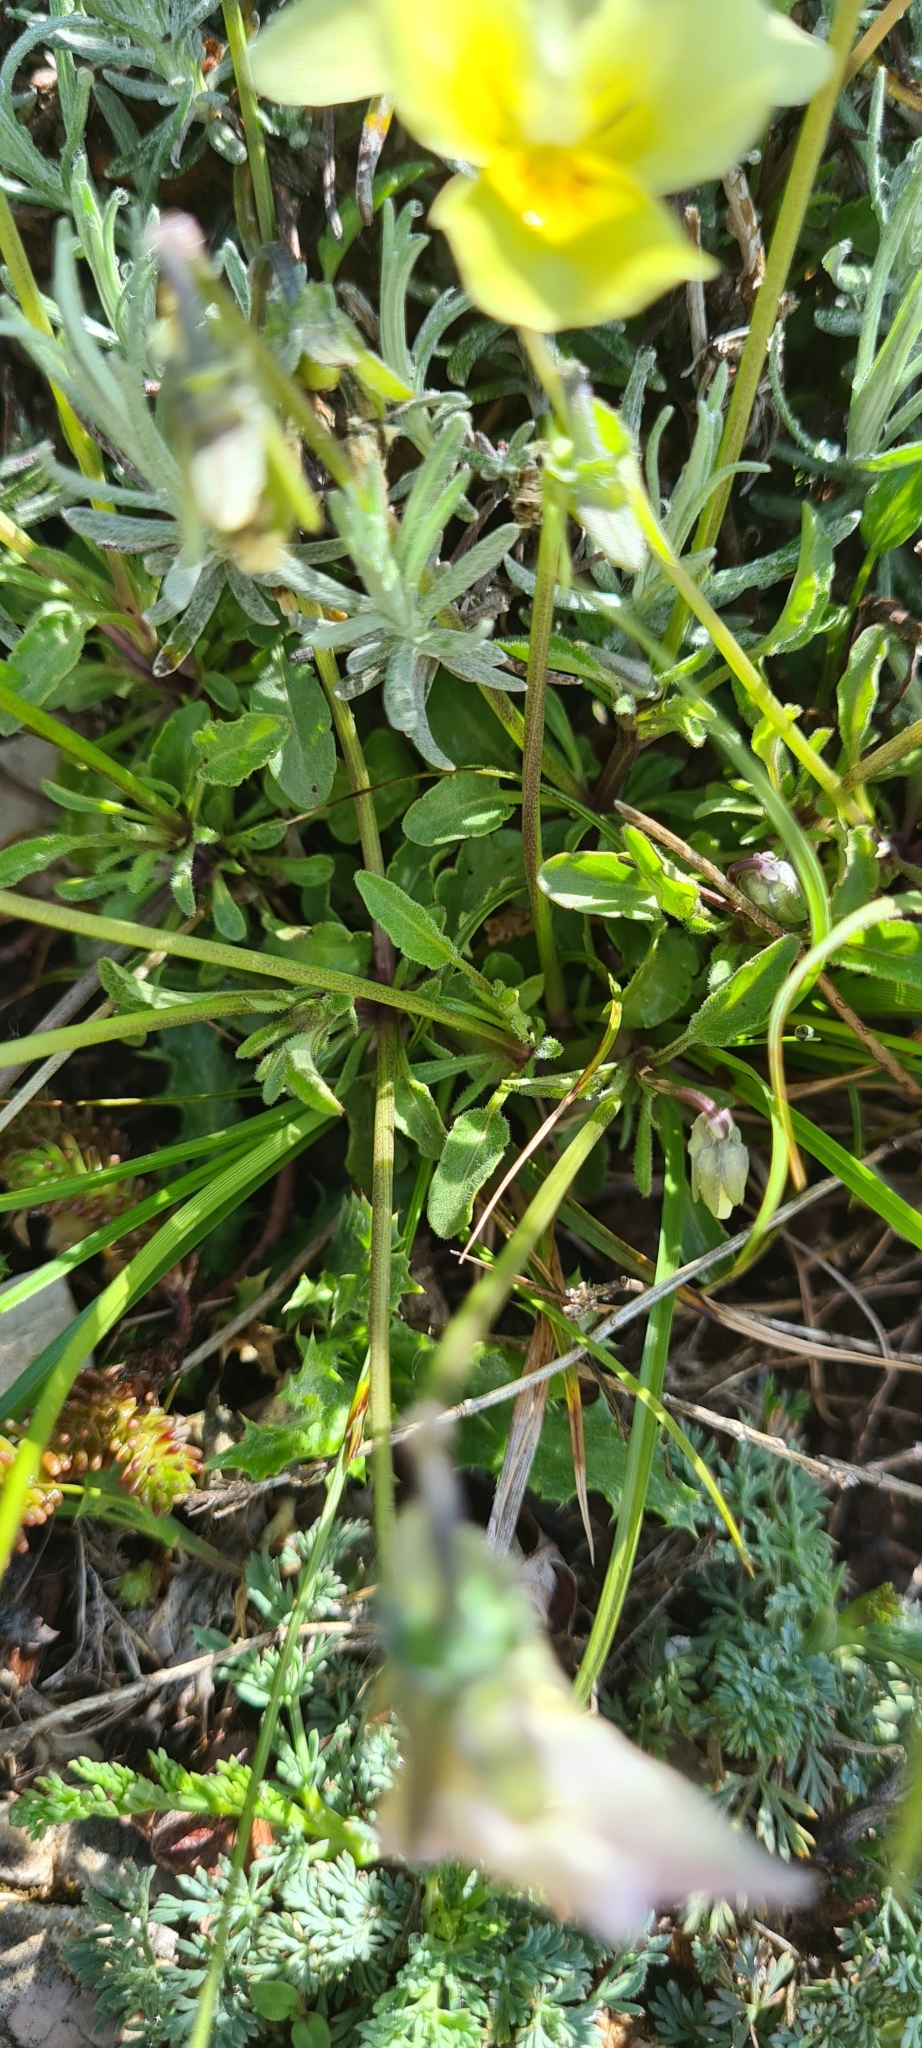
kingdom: Plantae
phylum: Tracheophyta
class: Magnoliopsida
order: Malpighiales
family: Violaceae
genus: Viola
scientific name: Viola eugeniae
